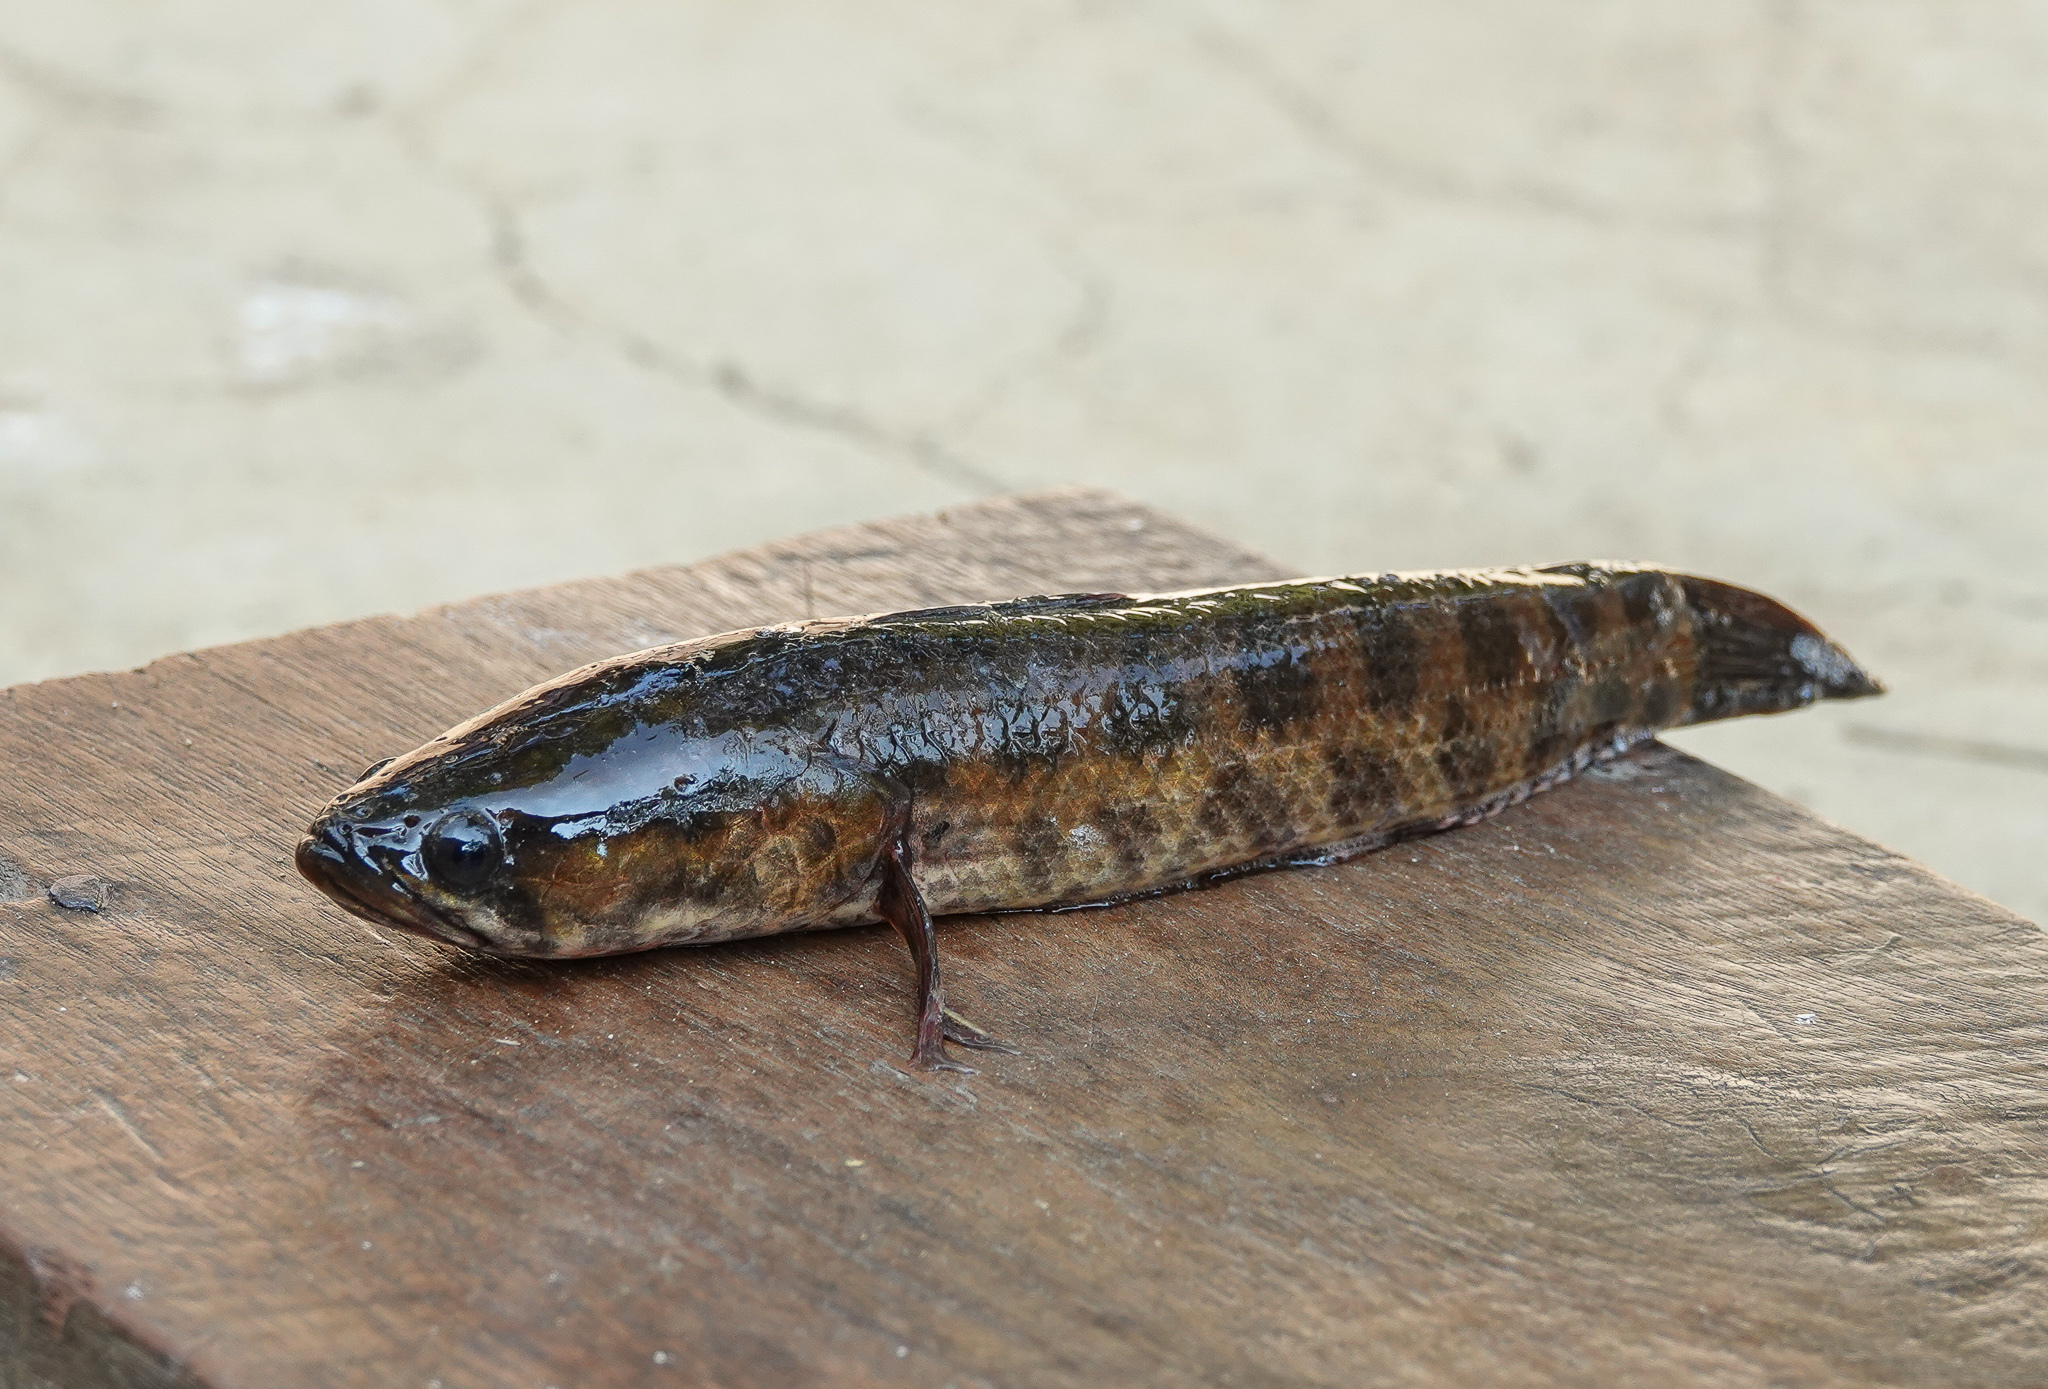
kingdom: Animalia
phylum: Chordata
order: Perciformes
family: Channidae
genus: Channa
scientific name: Channa punctata
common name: Spotted snakehead
